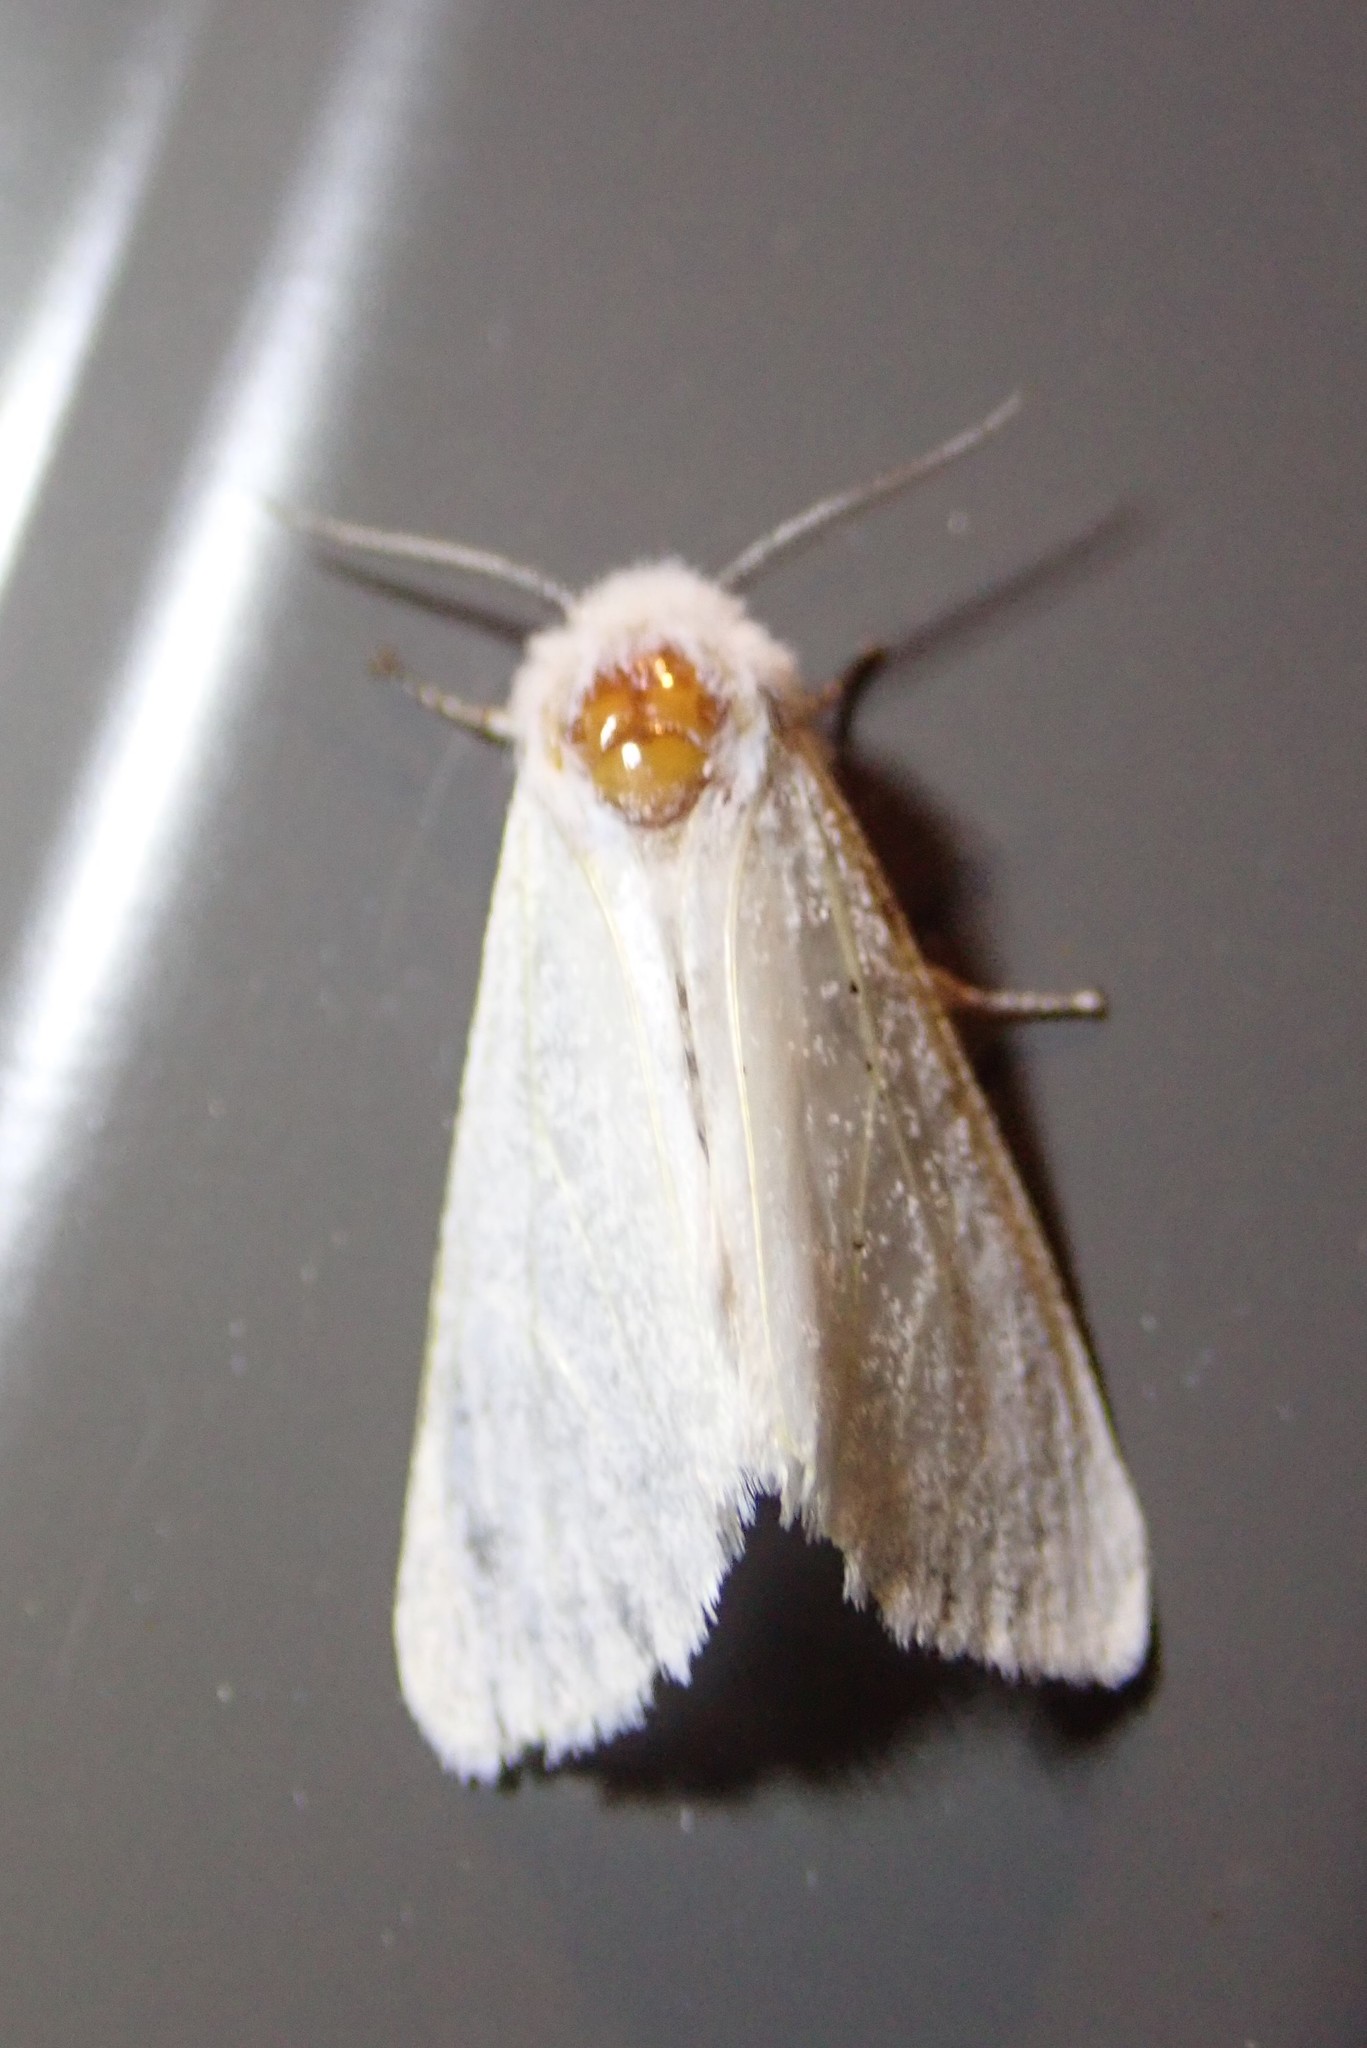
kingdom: Animalia
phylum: Arthropoda
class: Insecta
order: Lepidoptera
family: Erebidae
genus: Hyphantria
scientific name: Hyphantria cunea
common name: American white moth
